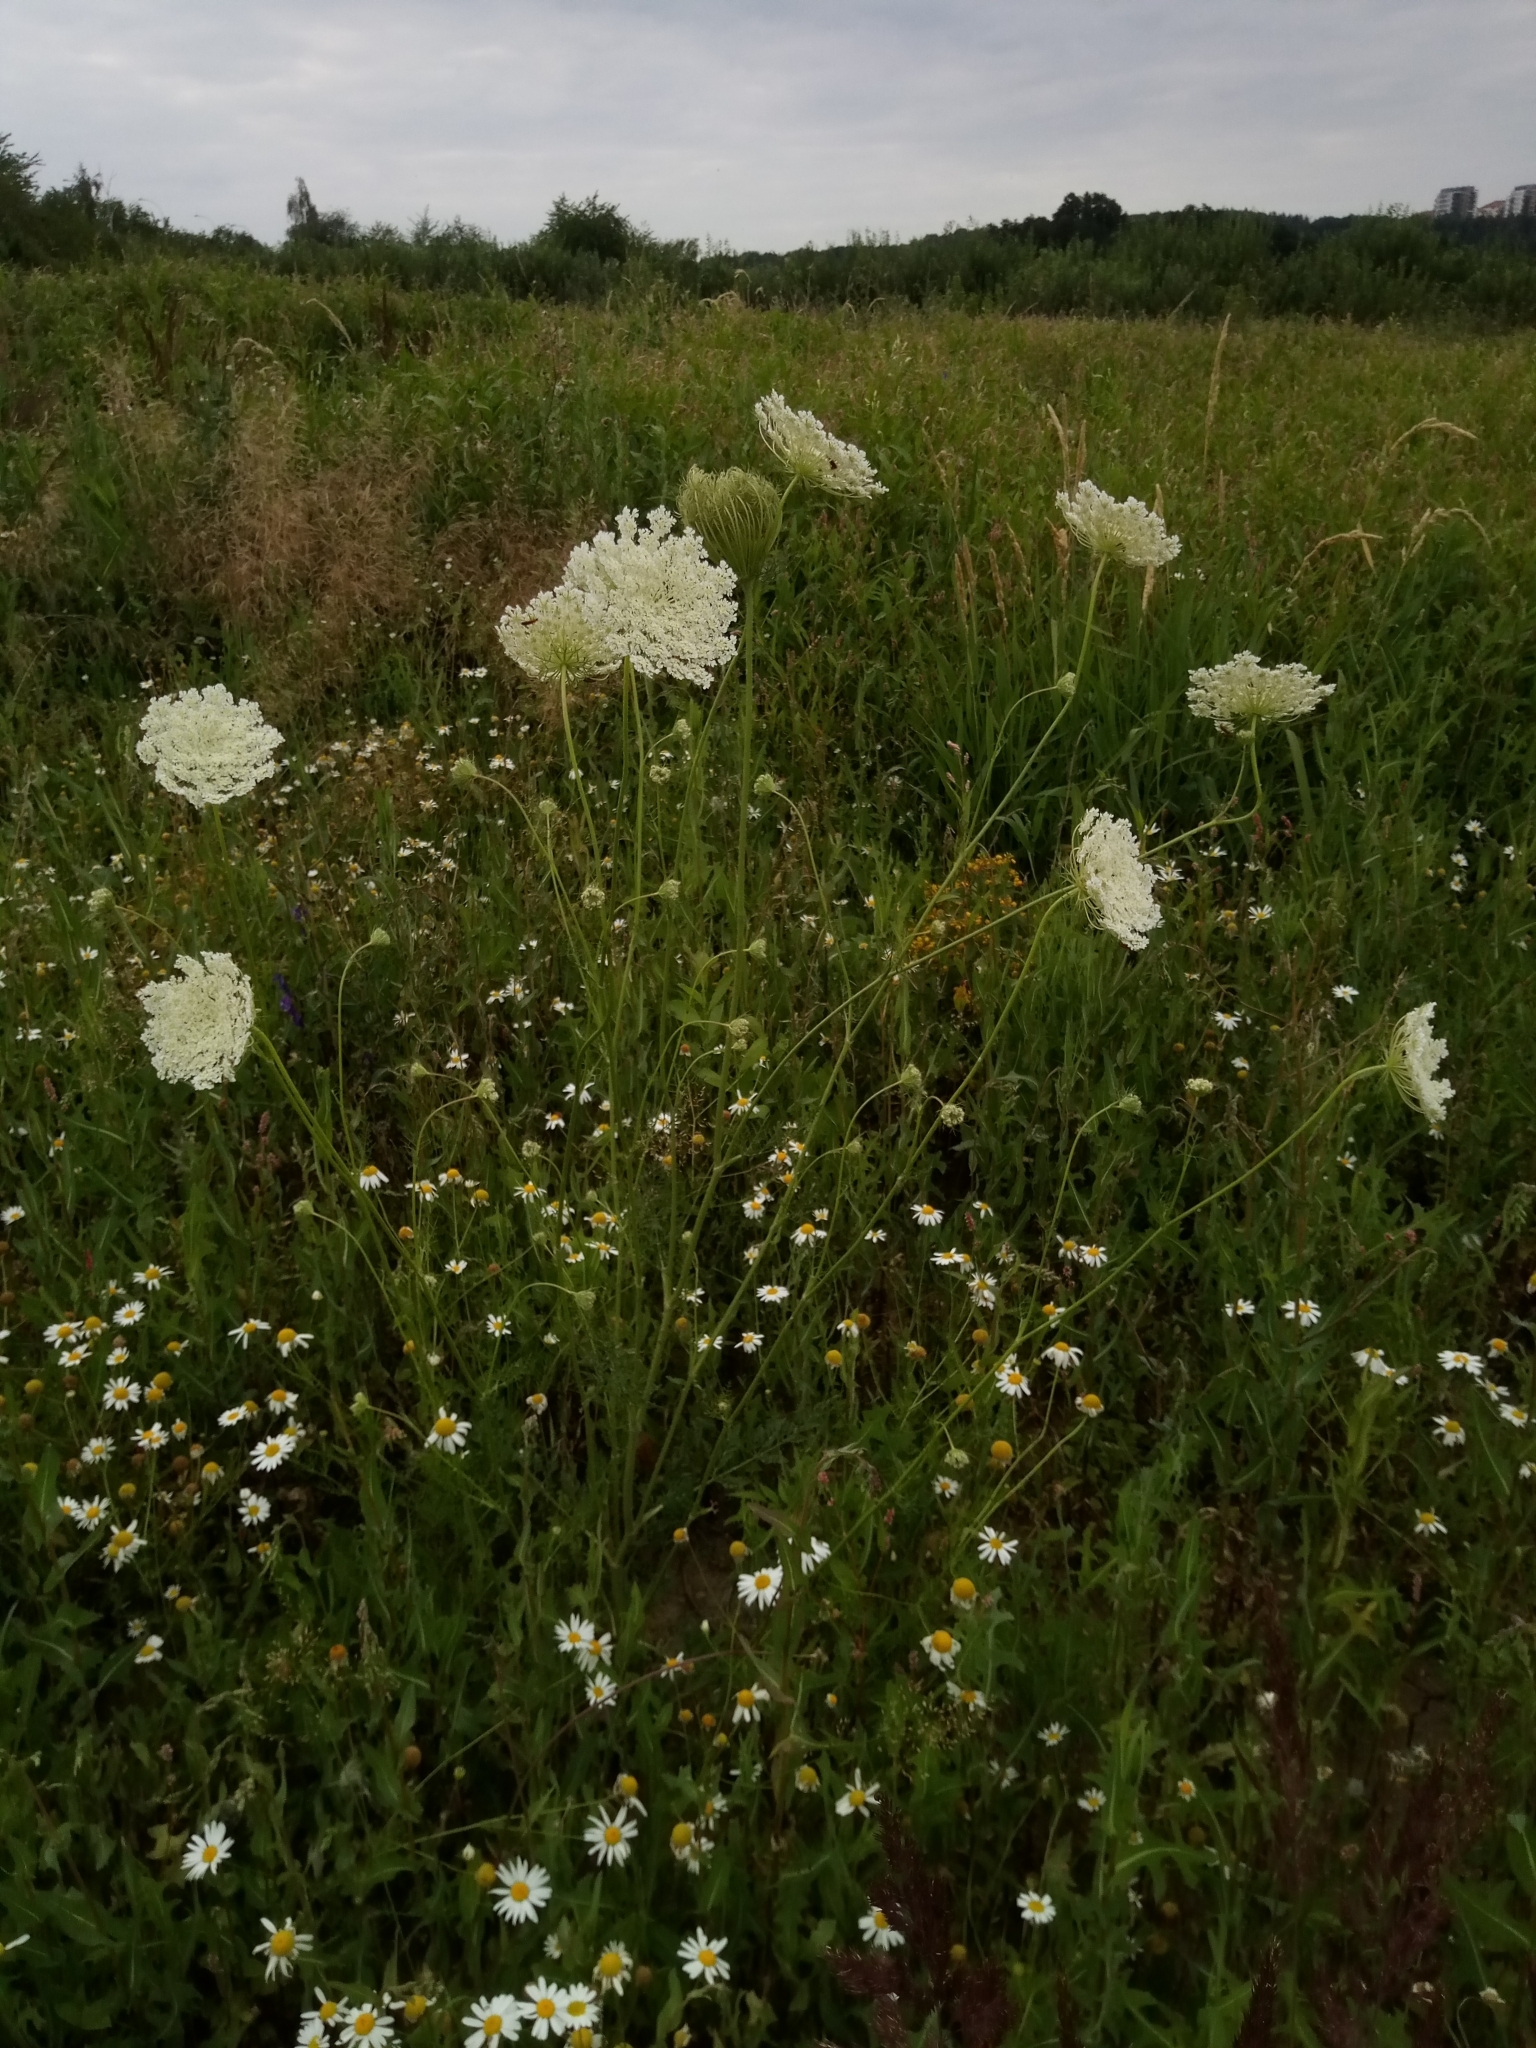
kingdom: Plantae
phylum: Tracheophyta
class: Magnoliopsida
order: Apiales
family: Apiaceae
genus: Daucus
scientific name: Daucus carota
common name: Wild carrot
